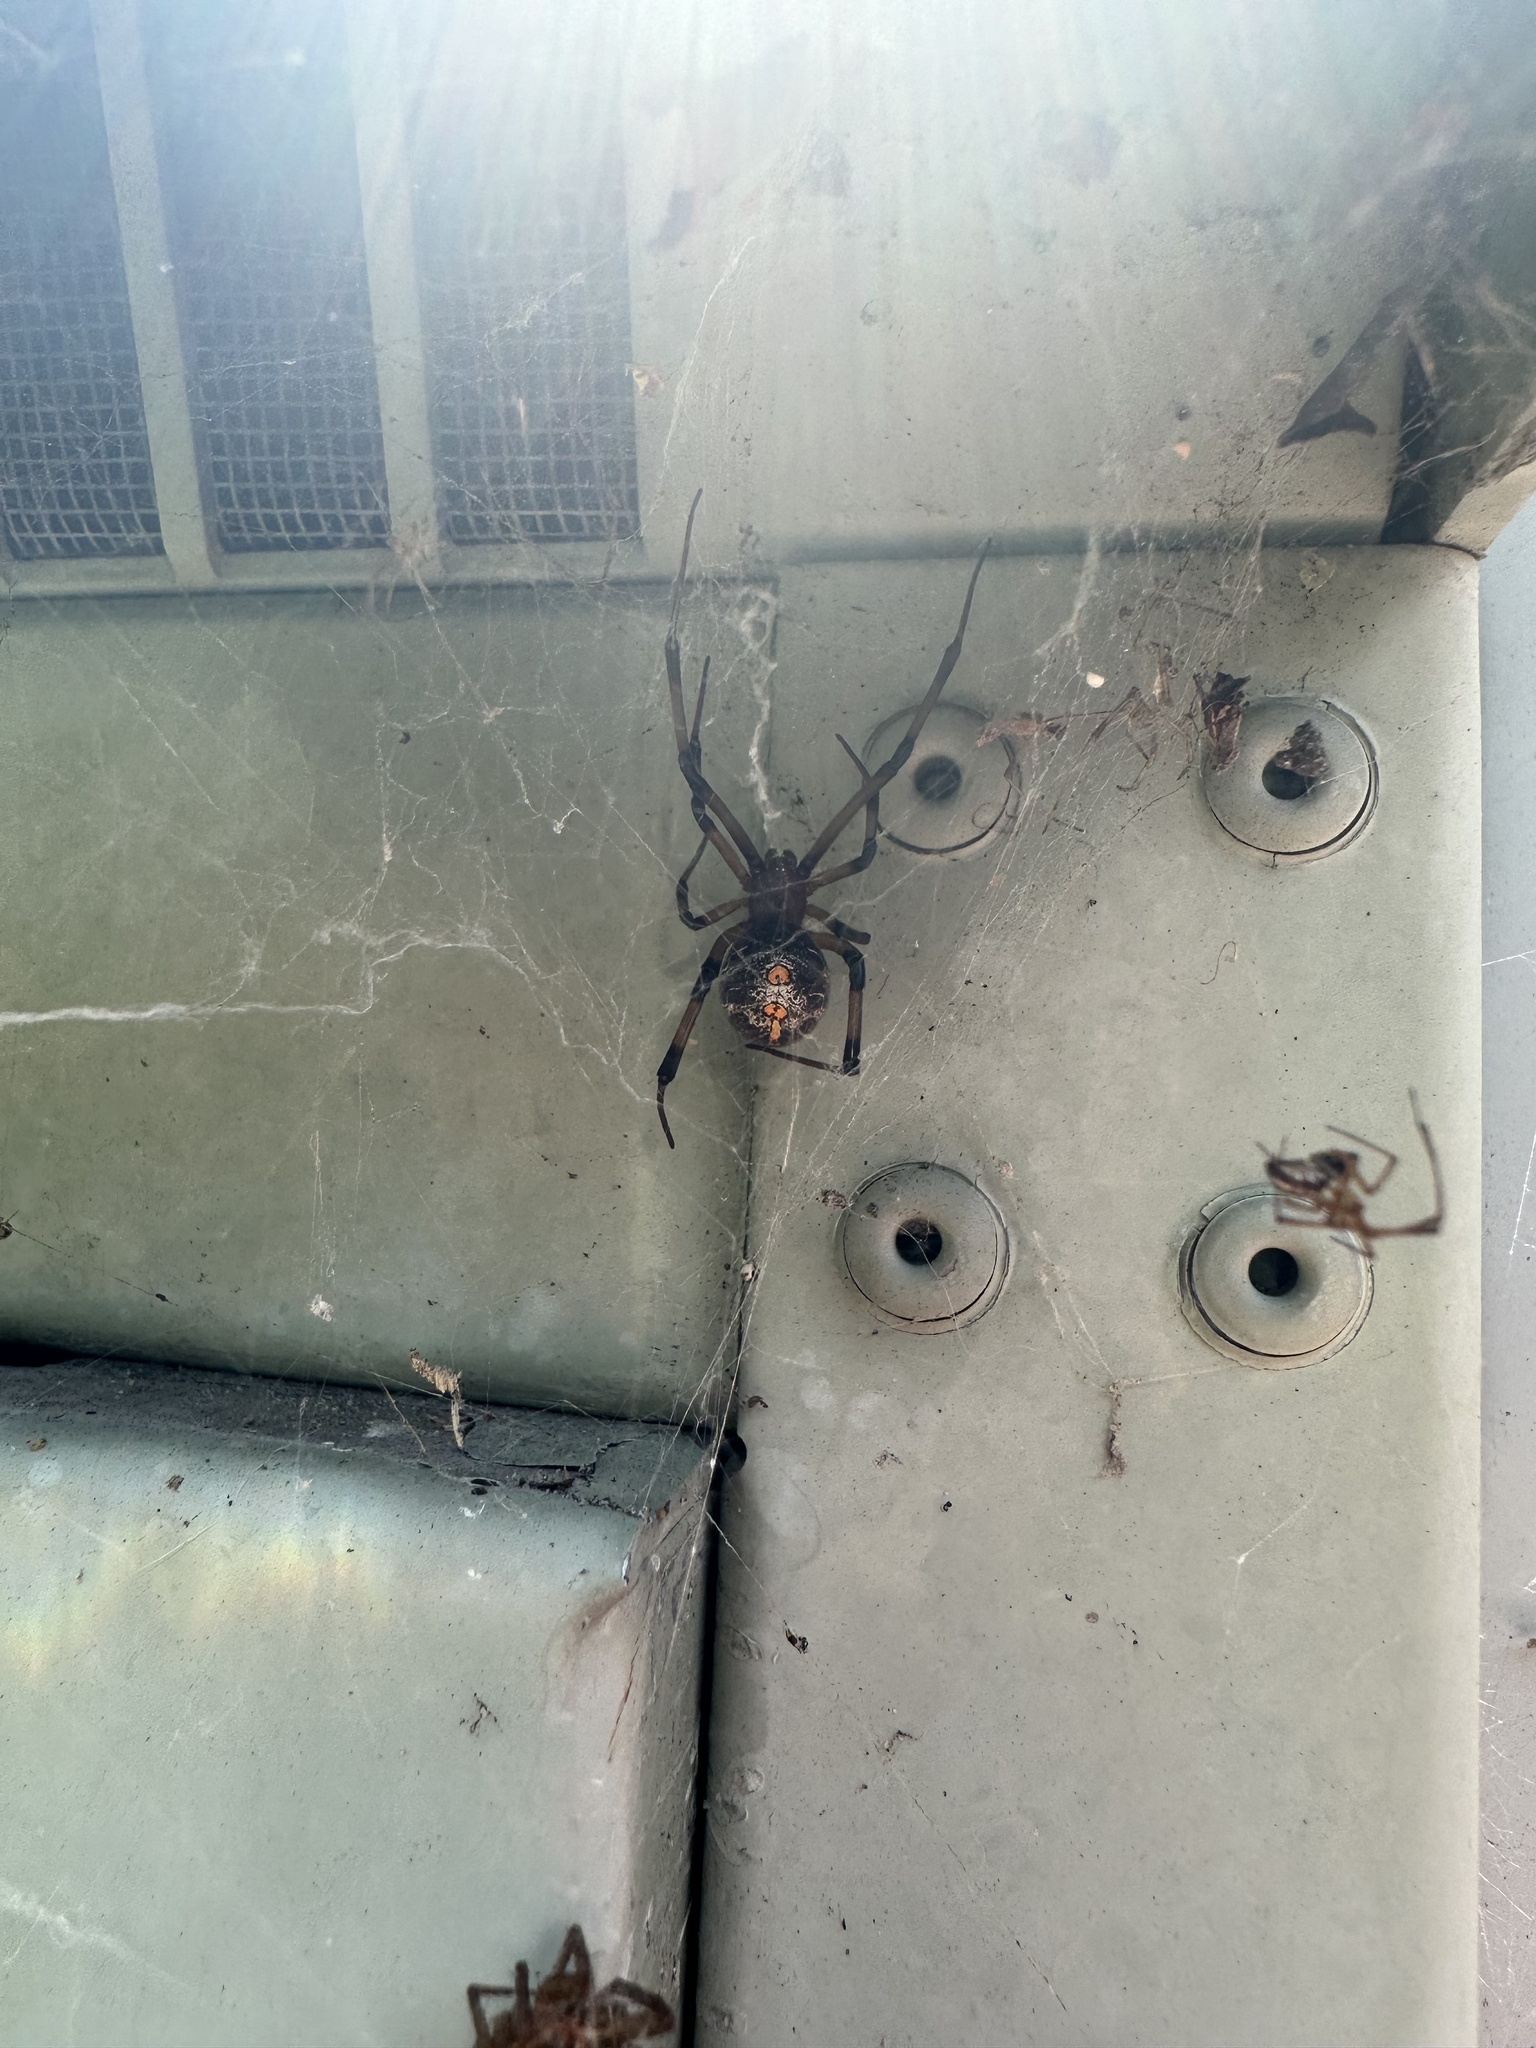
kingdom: Animalia
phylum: Arthropoda
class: Arachnida
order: Araneae
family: Theridiidae
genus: Latrodectus
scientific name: Latrodectus geometricus
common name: Brown widow spider
